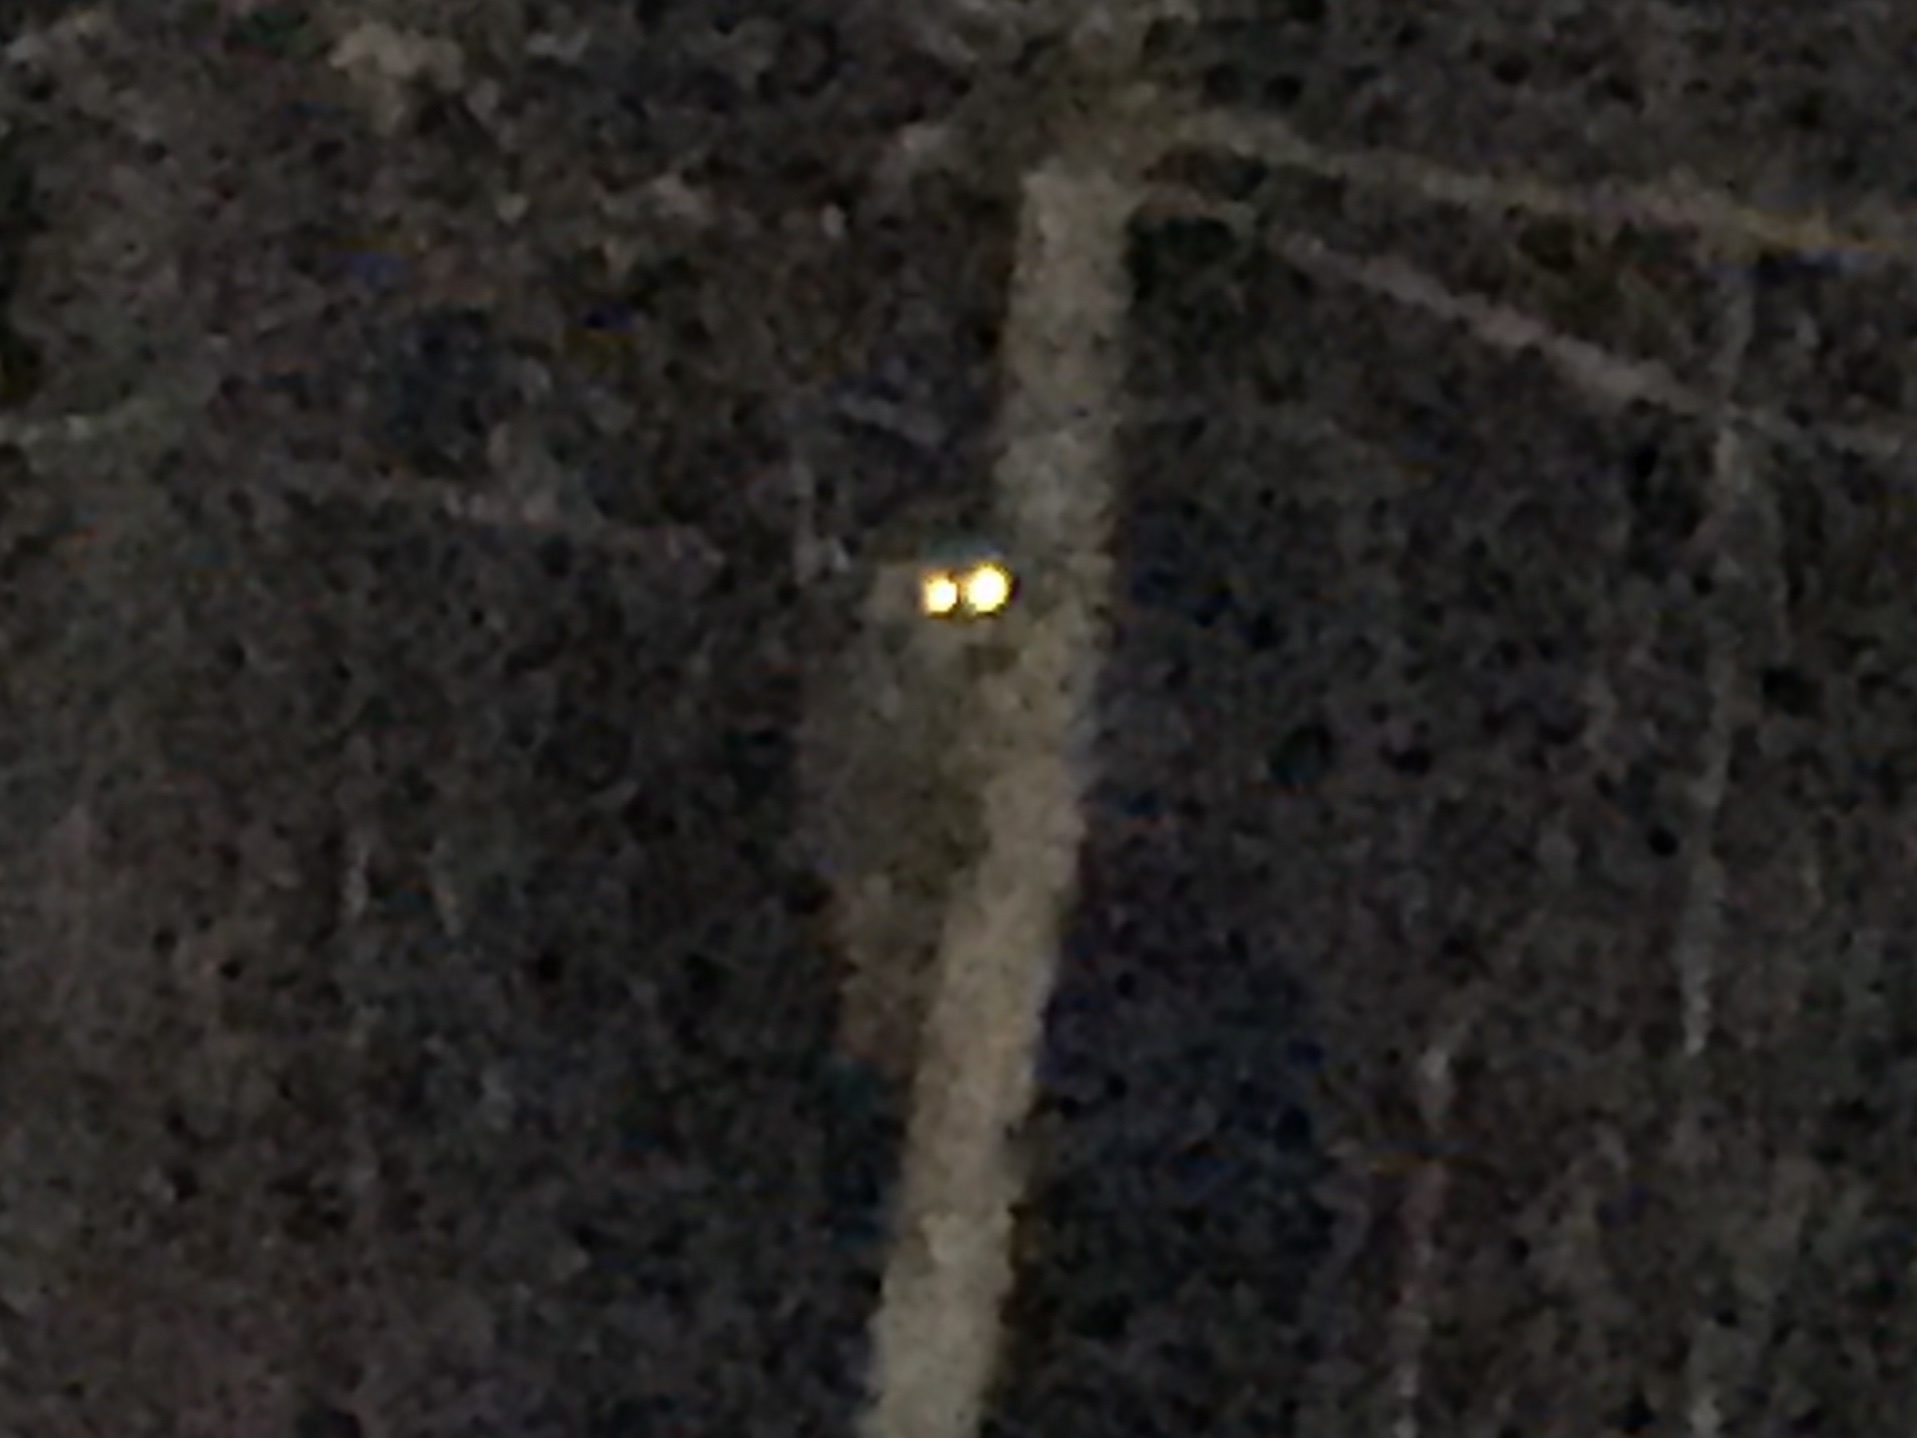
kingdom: Animalia
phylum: Chordata
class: Mammalia
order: Carnivora
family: Procyonidae
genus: Procyon
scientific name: Procyon lotor
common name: Raccoon
